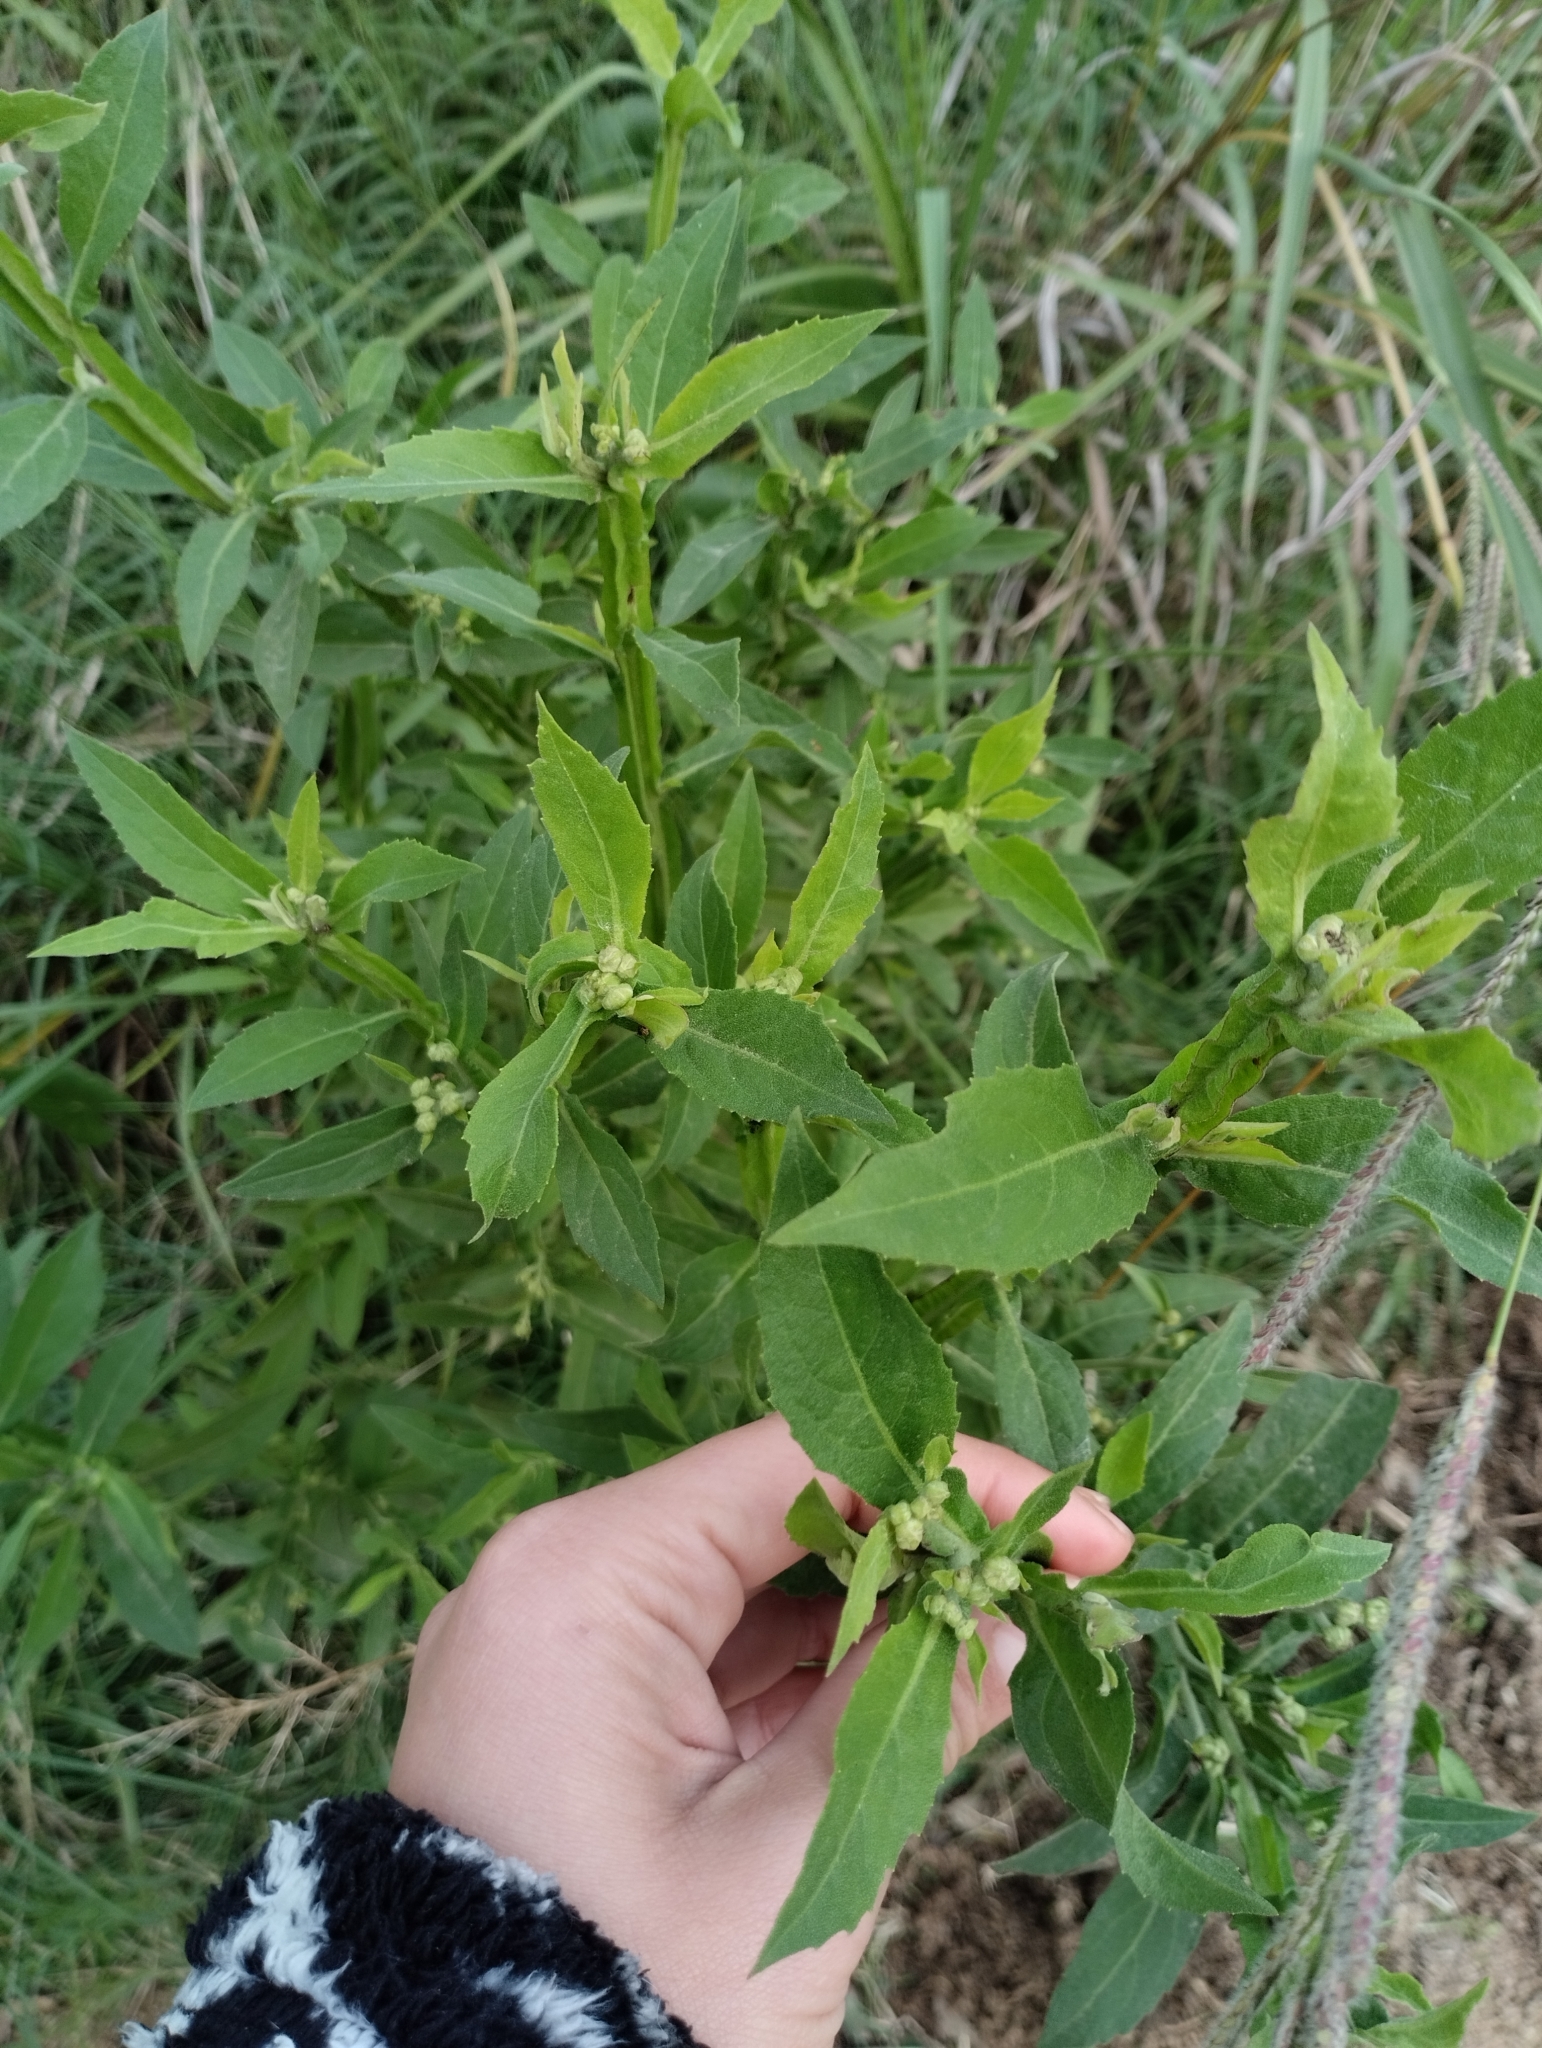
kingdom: Plantae
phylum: Tracheophyta
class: Magnoliopsida
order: Asterales
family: Asteraceae
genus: Pluchea
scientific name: Pluchea sagittalis
